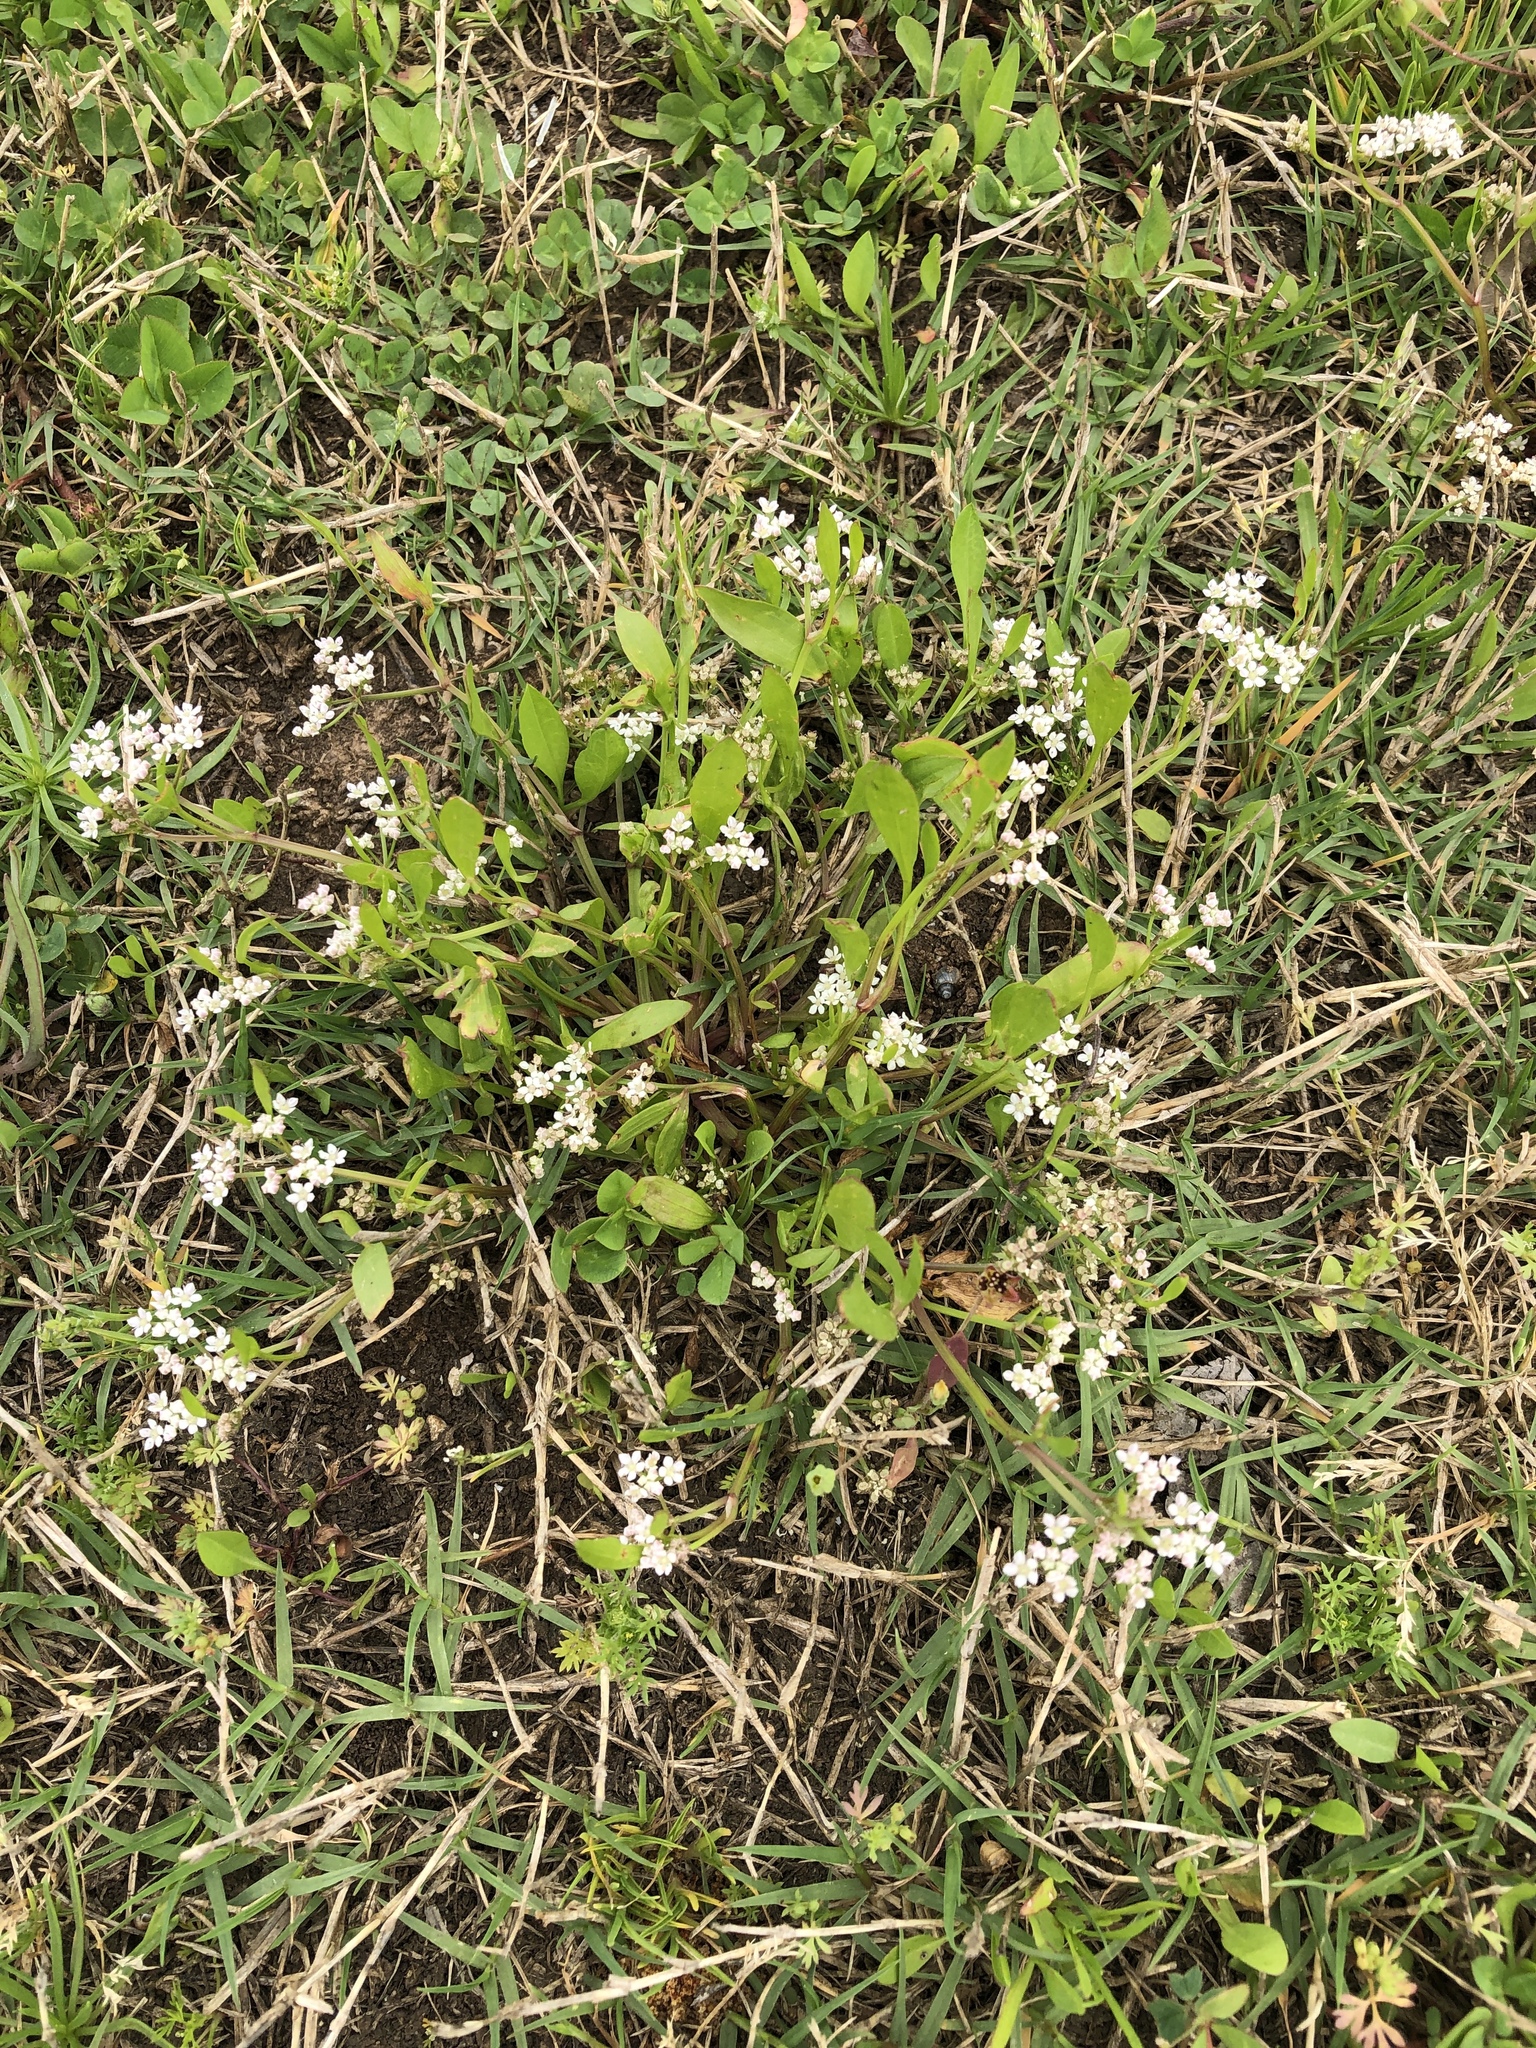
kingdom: Plantae
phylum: Tracheophyta
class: Magnoliopsida
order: Apiales
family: Apiaceae
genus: Limnosciadium
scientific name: Limnosciadium pinnatum
